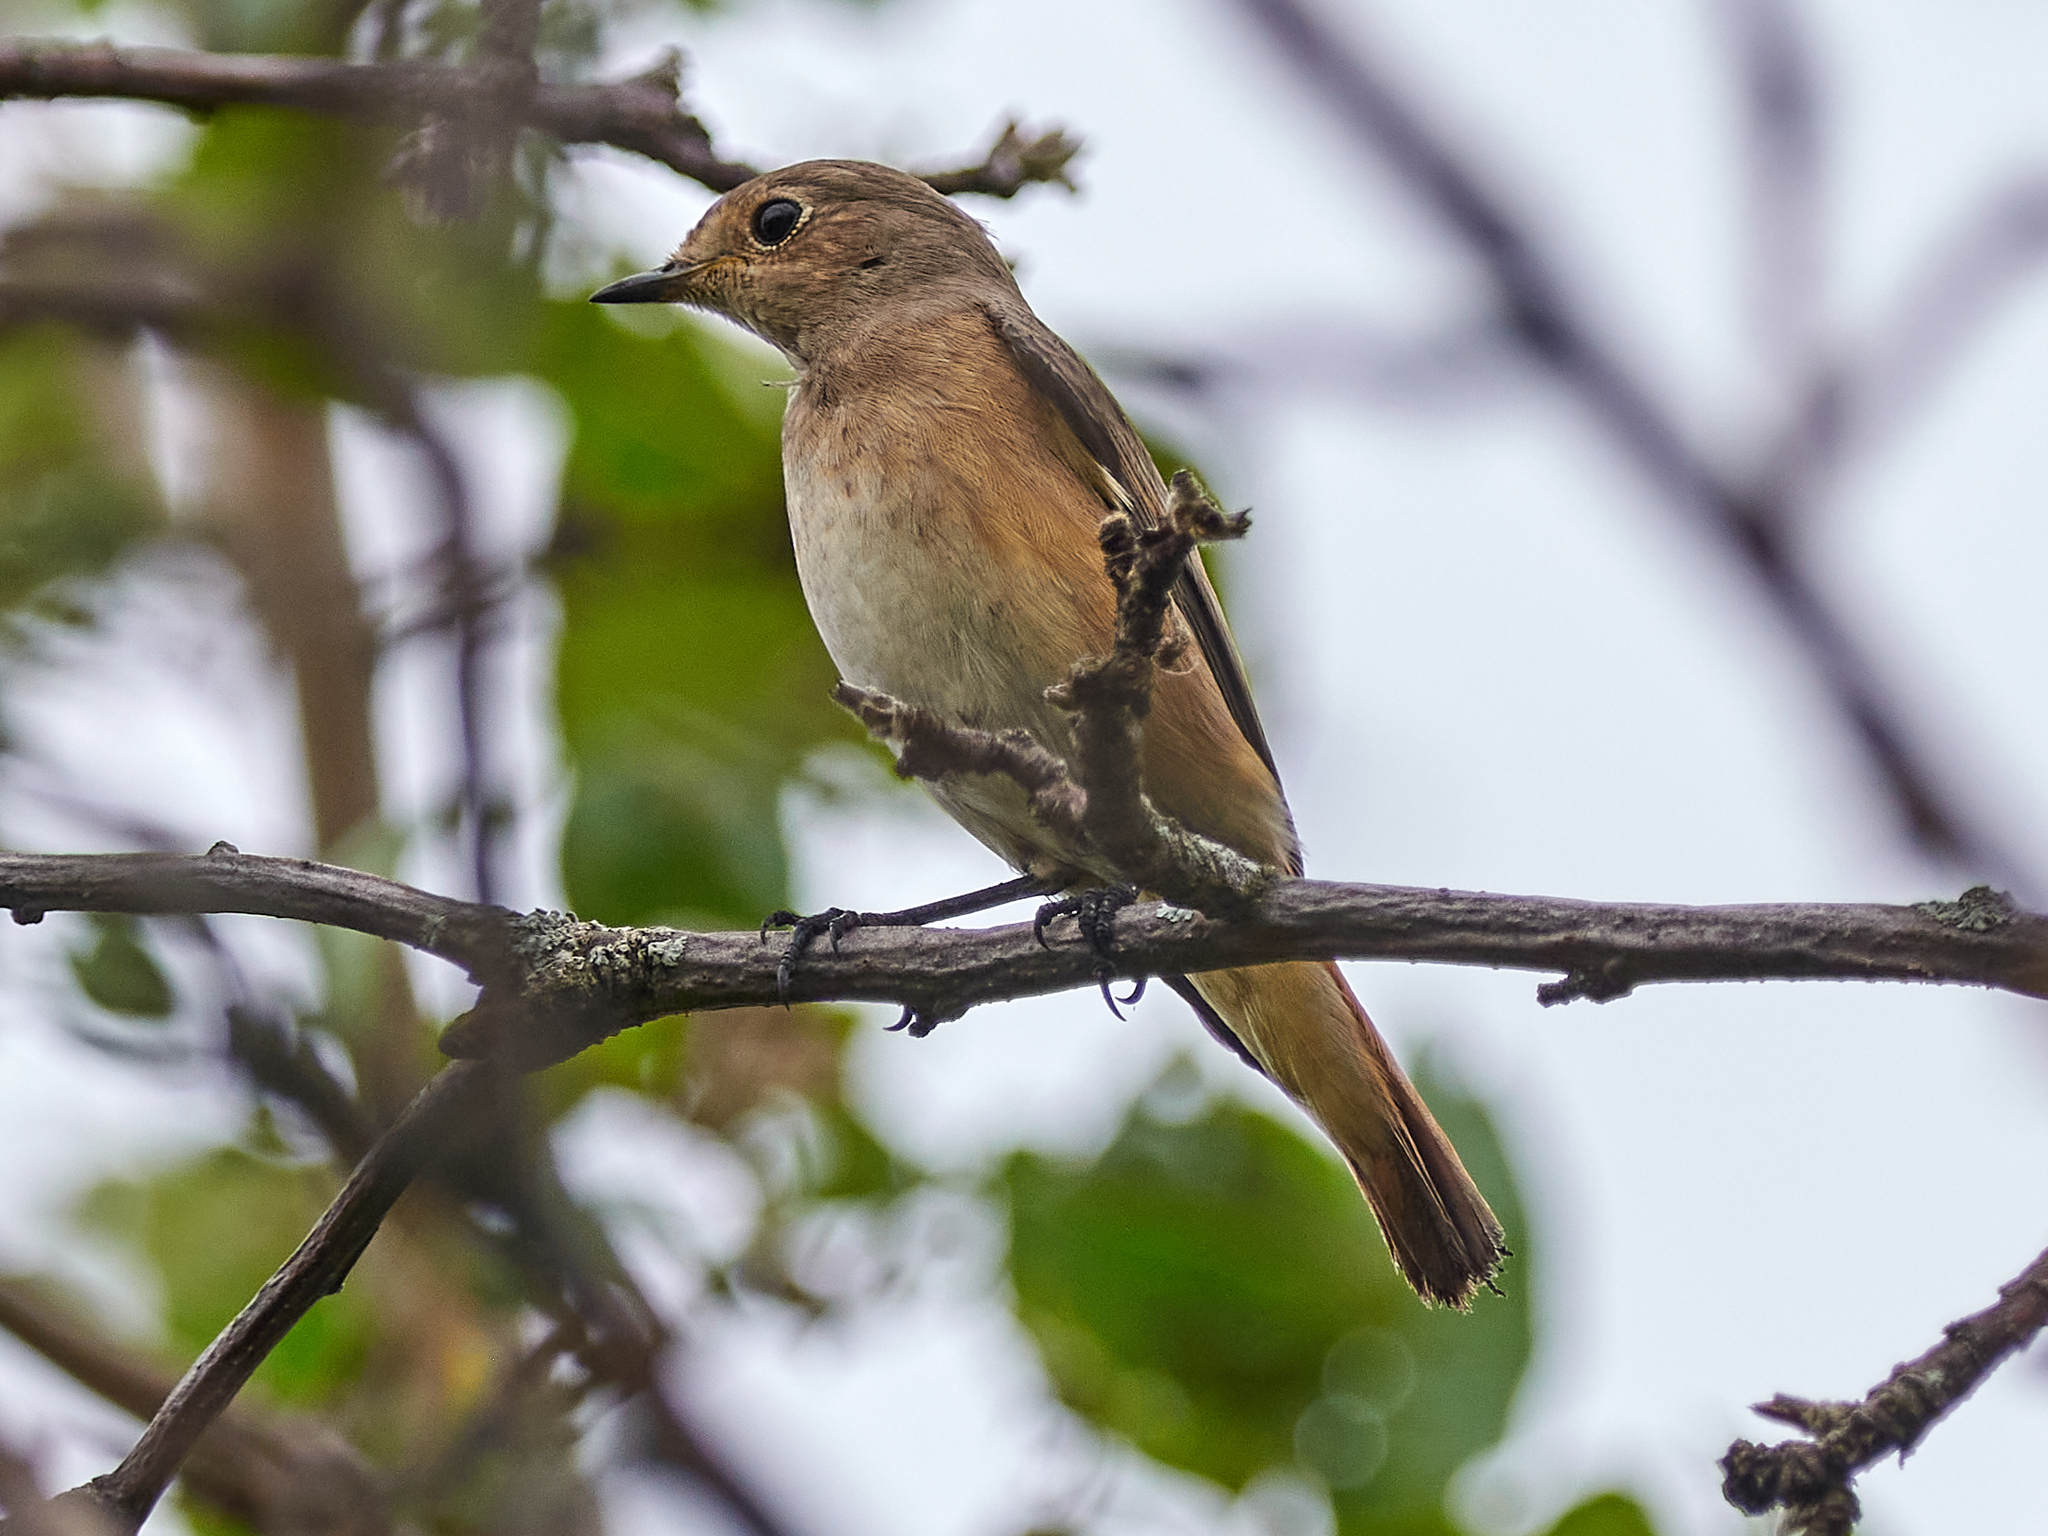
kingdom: Animalia
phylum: Chordata
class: Aves
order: Passeriformes
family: Muscicapidae
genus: Phoenicurus
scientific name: Phoenicurus phoenicurus
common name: Common redstart
